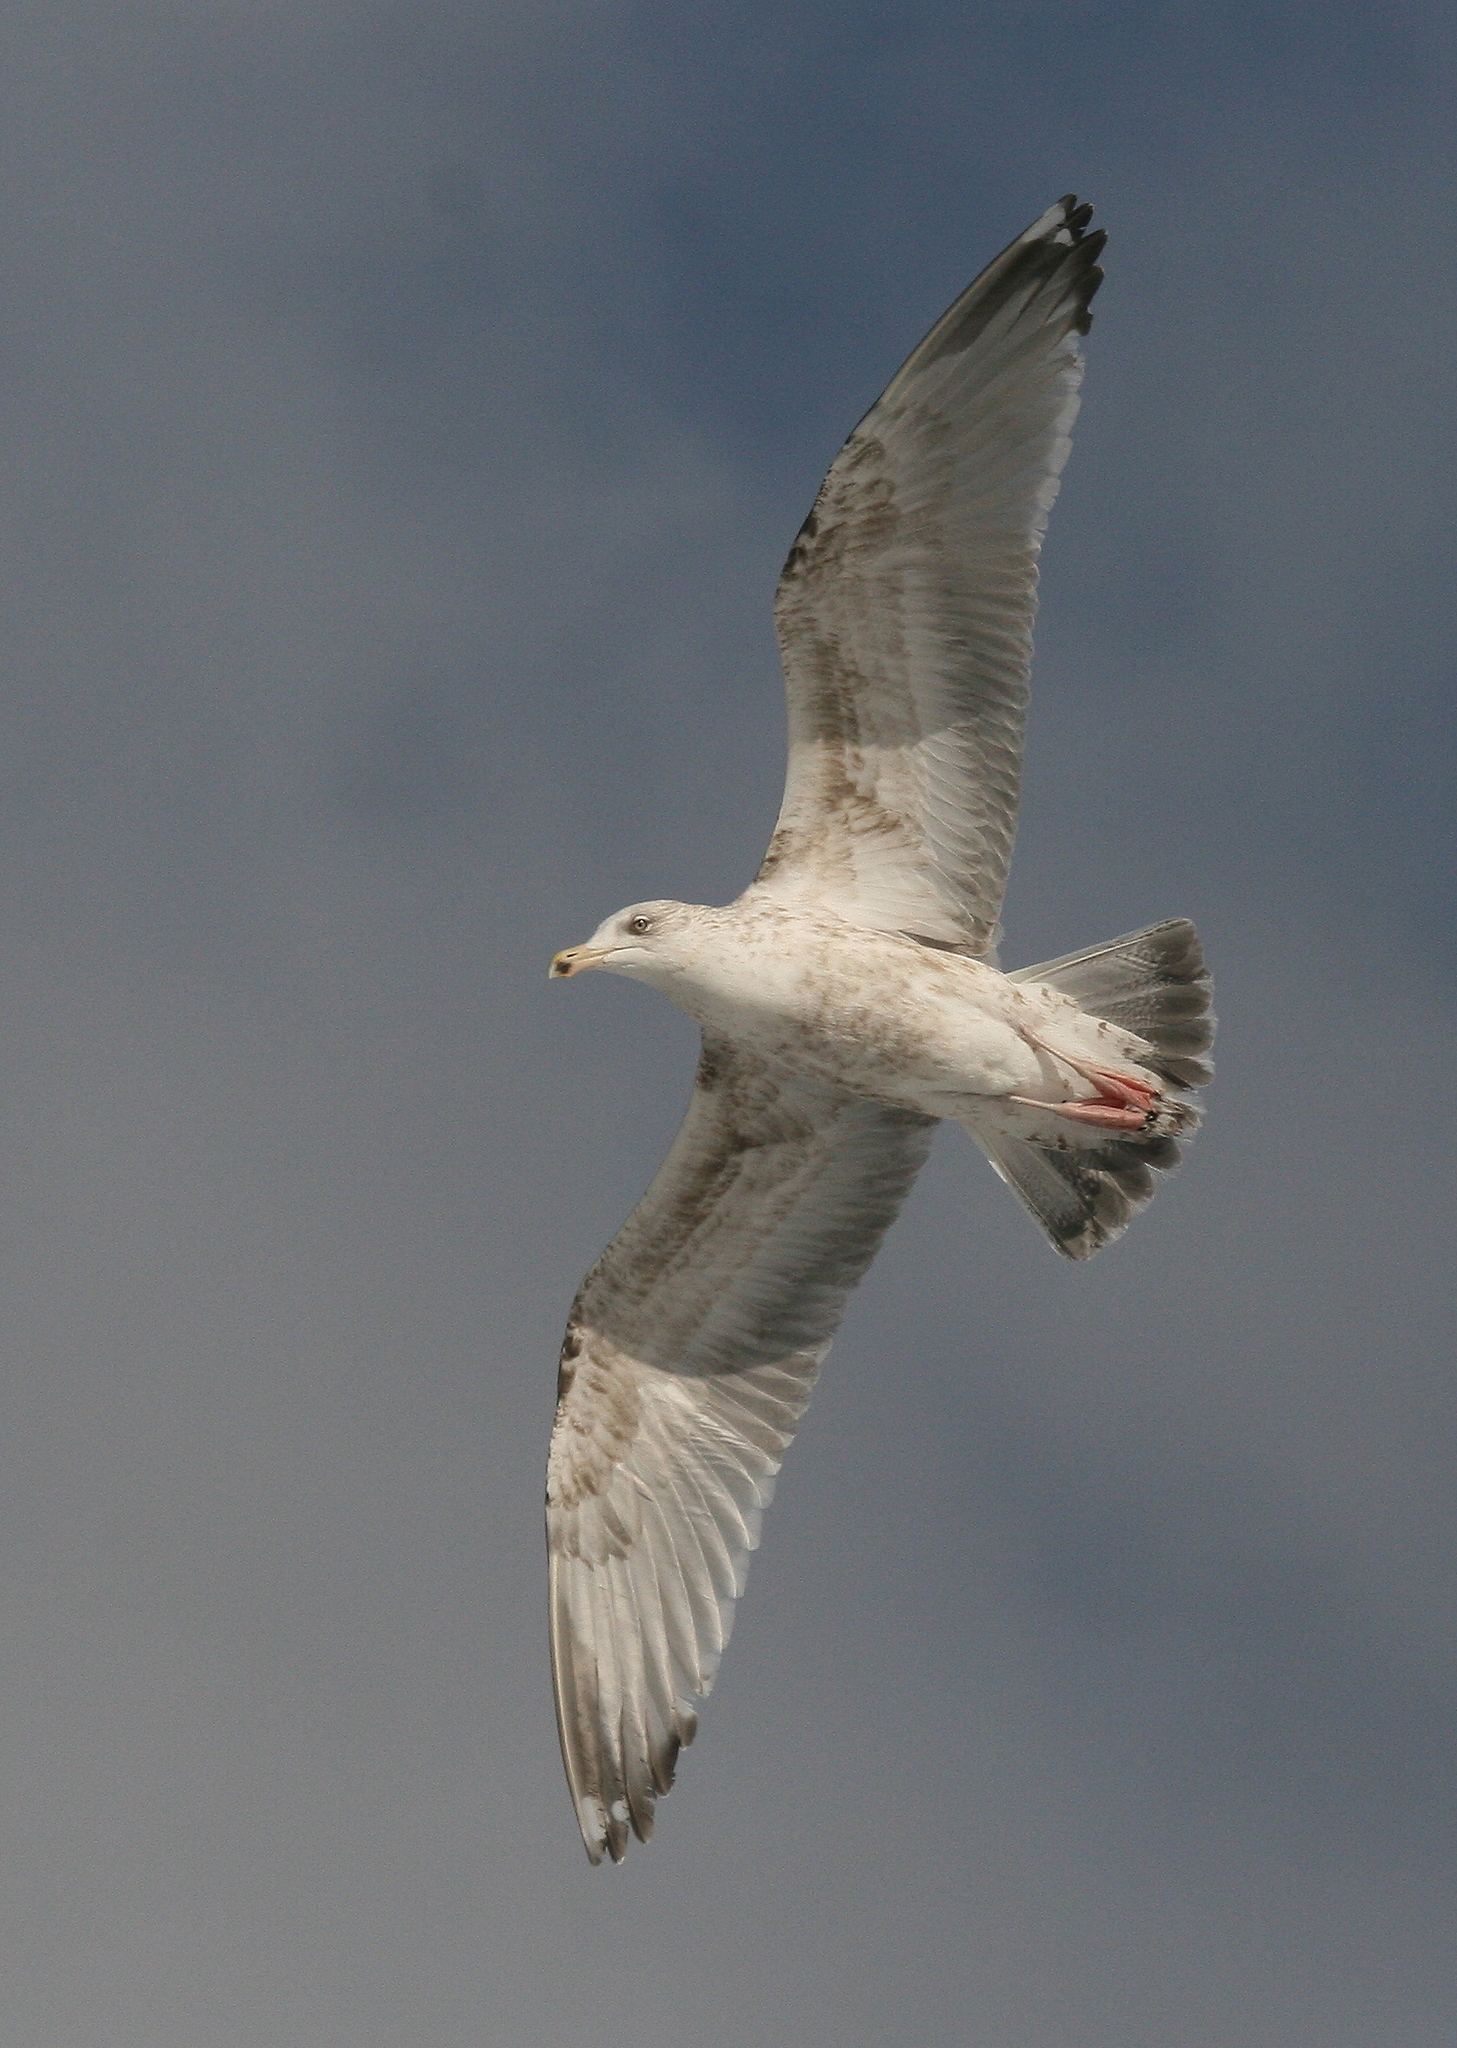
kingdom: Animalia
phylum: Chordata
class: Aves
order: Charadriiformes
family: Laridae
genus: Larus
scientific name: Larus argentatus
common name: Herring gull
